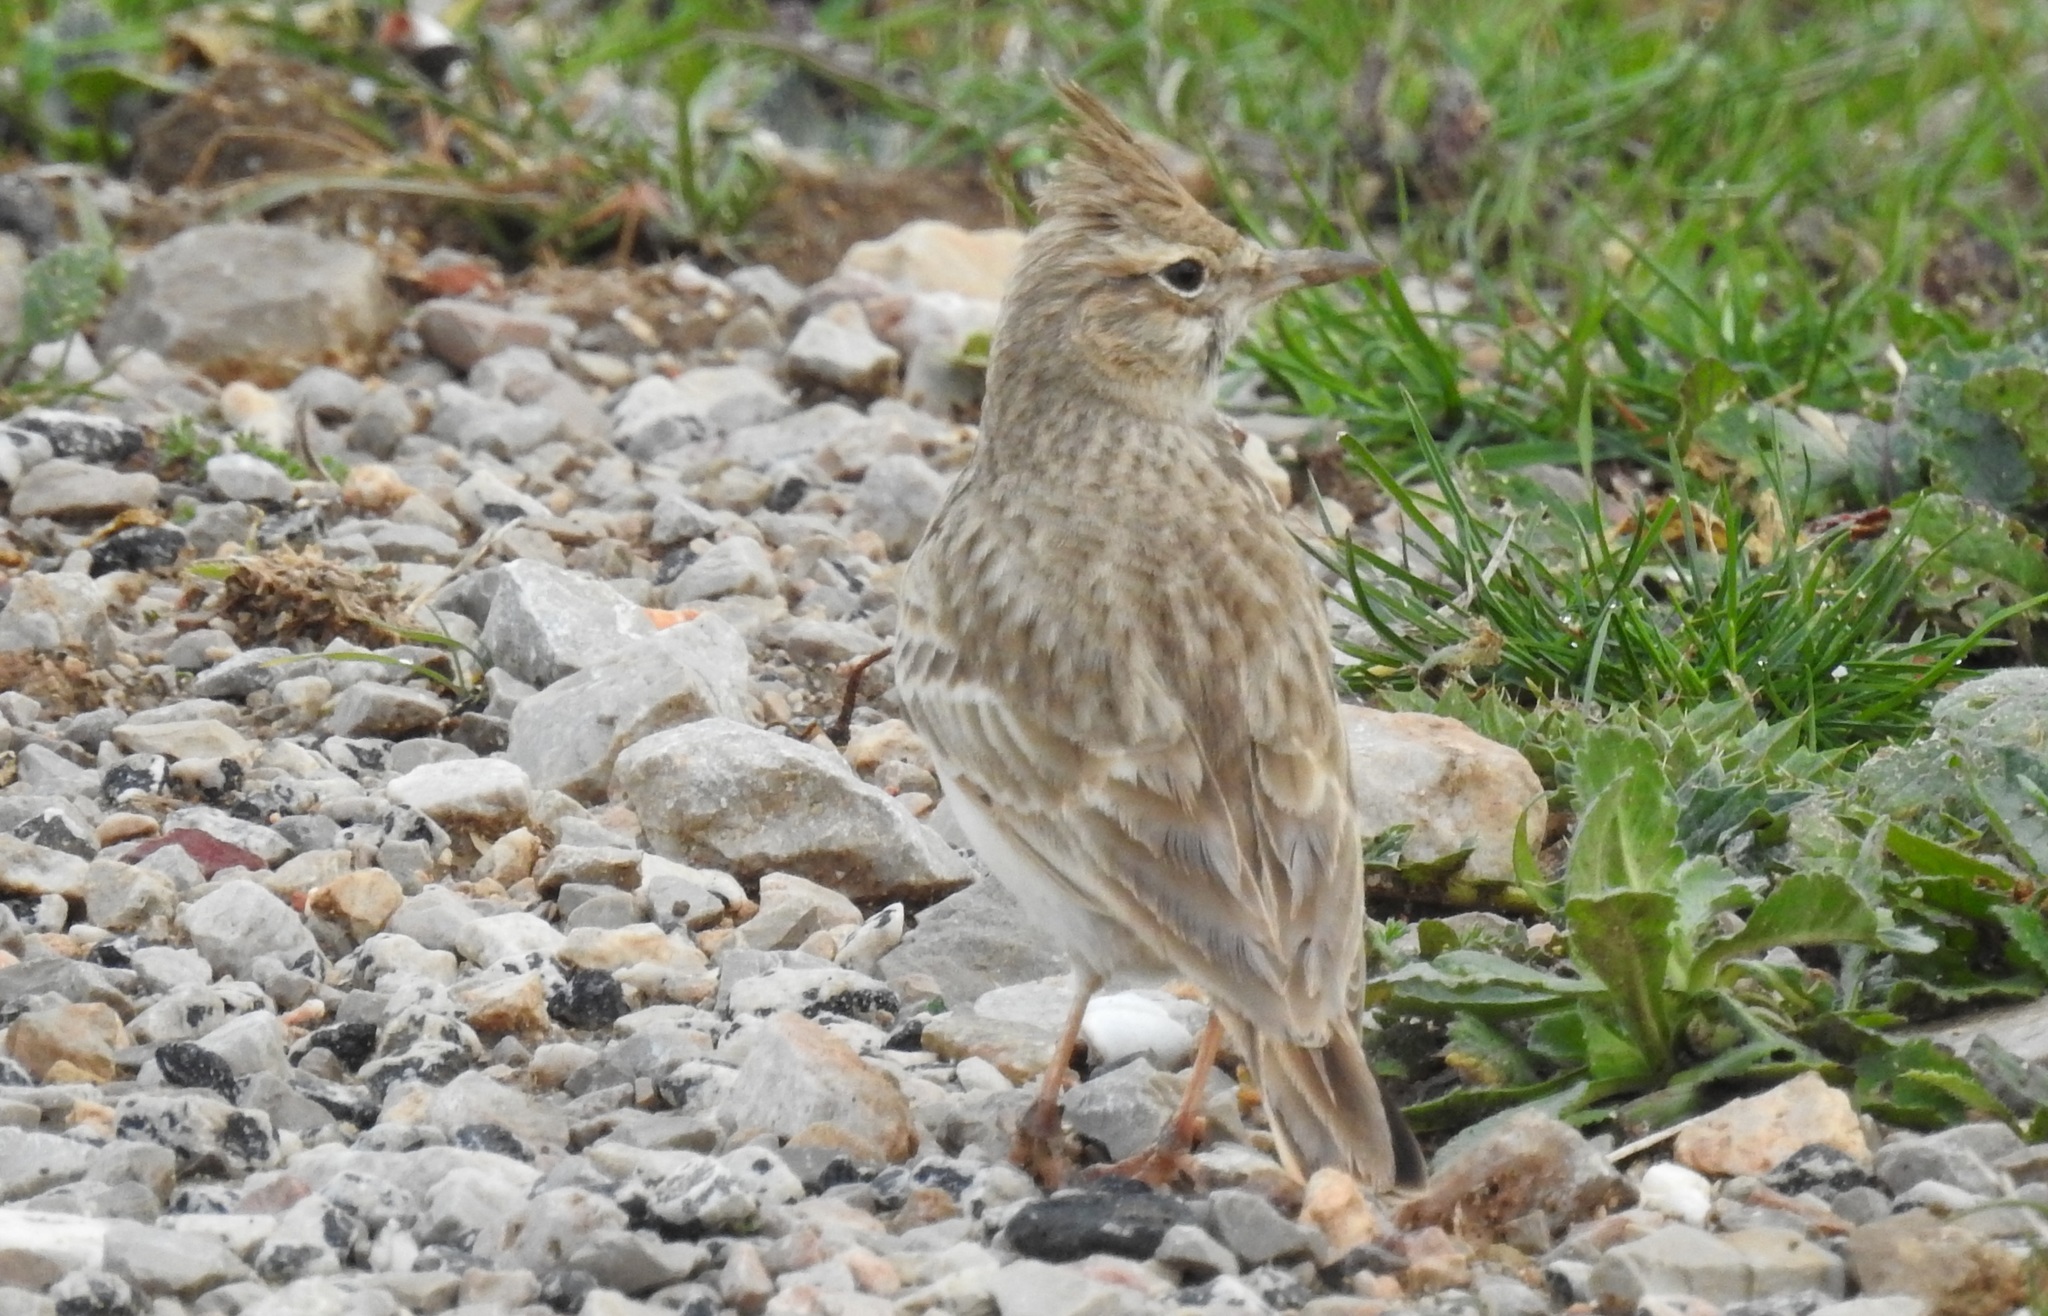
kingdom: Animalia
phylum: Chordata
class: Aves
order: Passeriformes
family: Alaudidae
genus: Galerida
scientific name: Galerida cristata
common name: Crested lark
